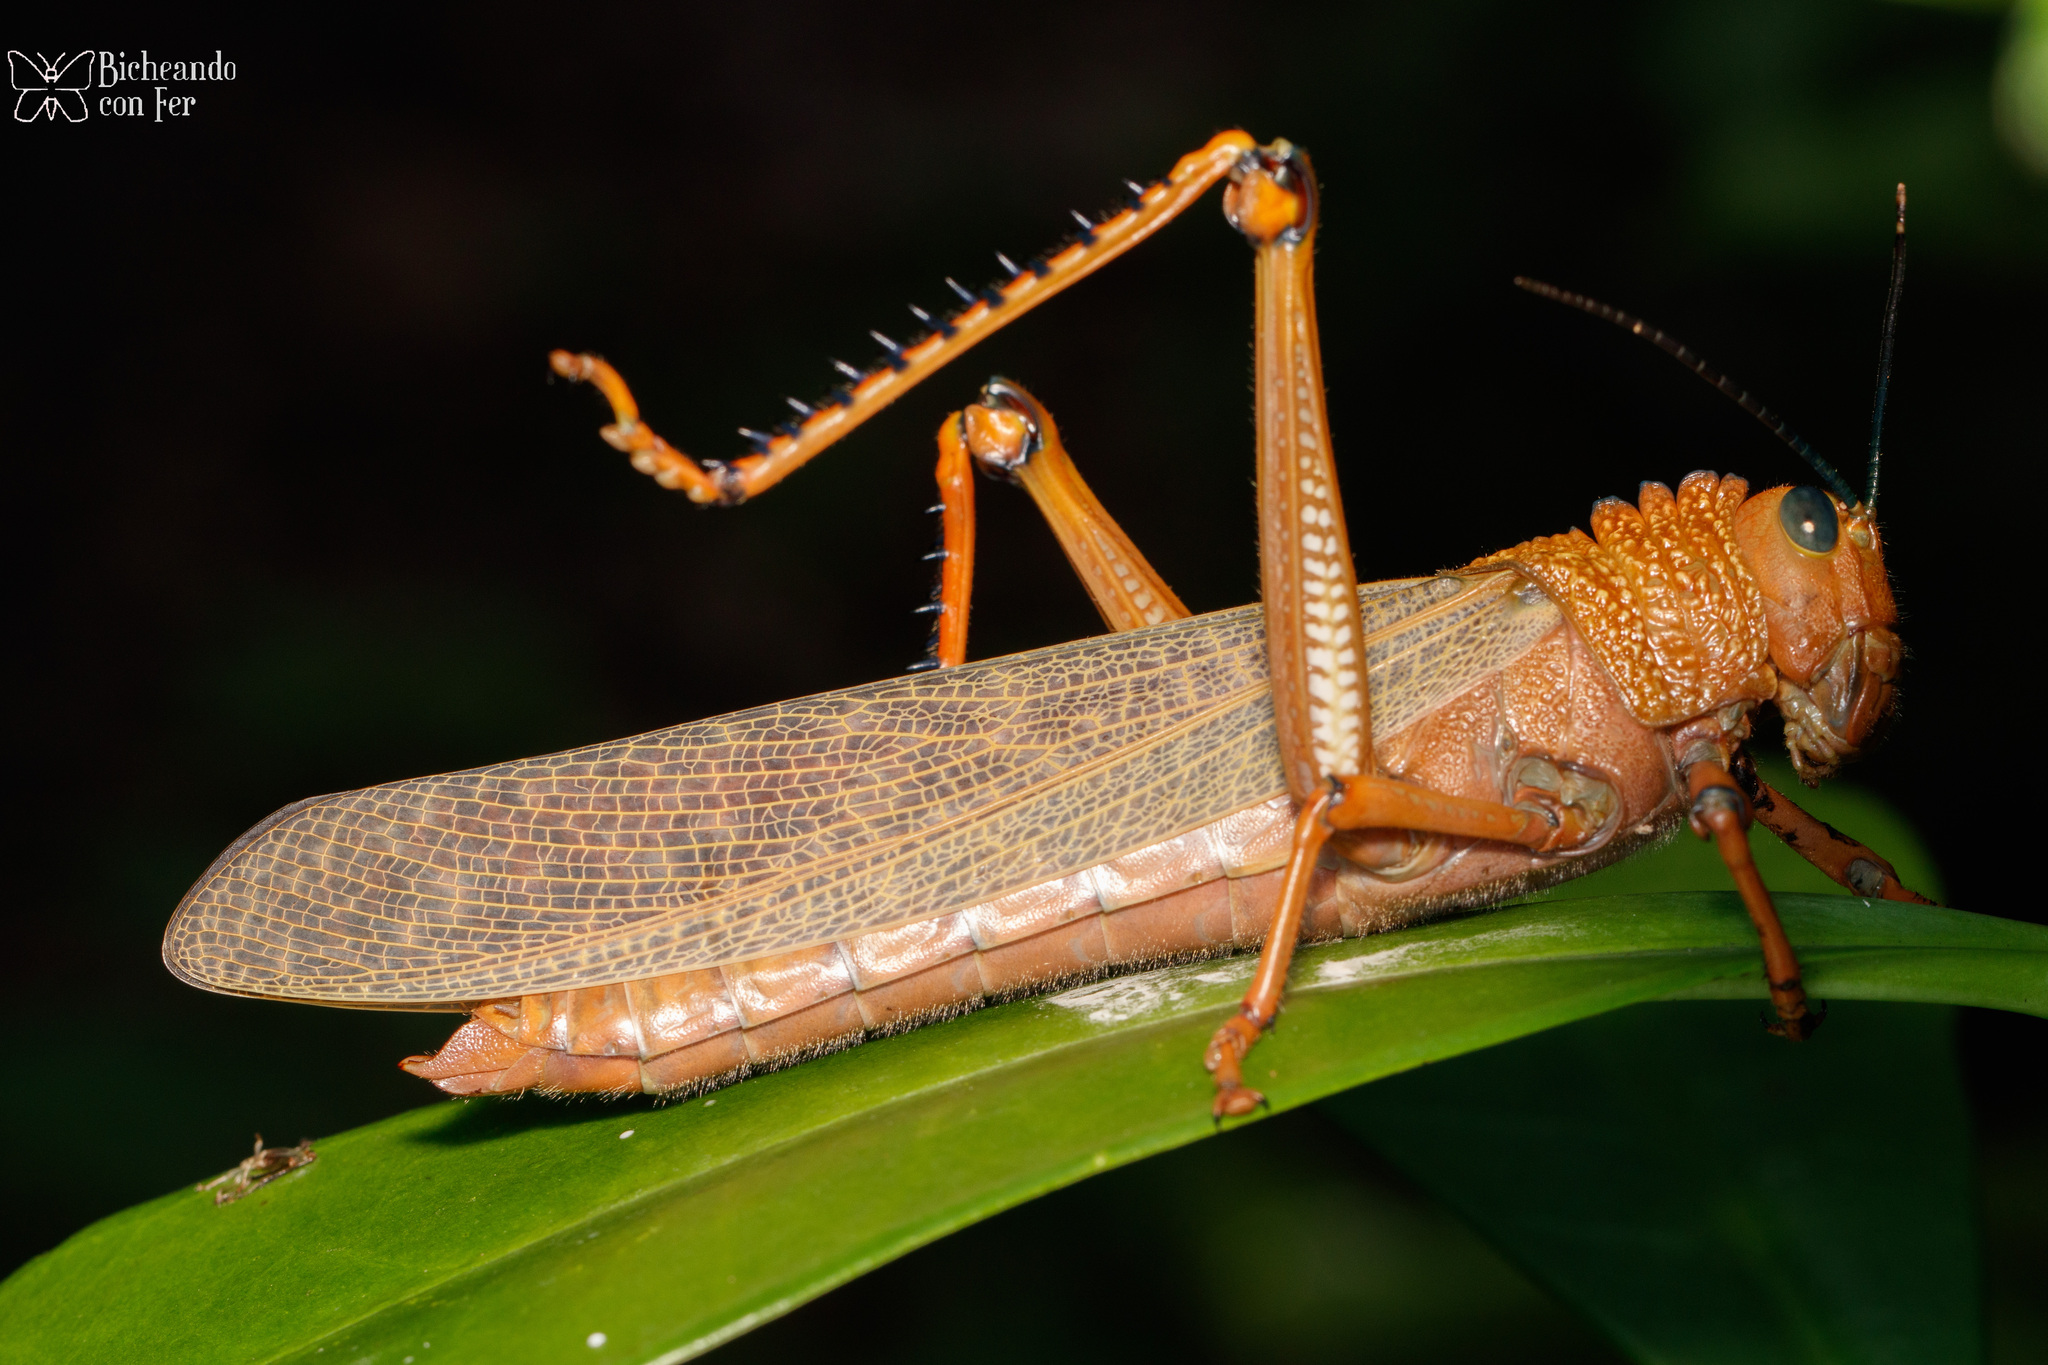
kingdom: Animalia
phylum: Arthropoda
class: Insecta
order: Orthoptera
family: Romaleidae
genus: Tropidacris
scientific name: Tropidacris cristata
